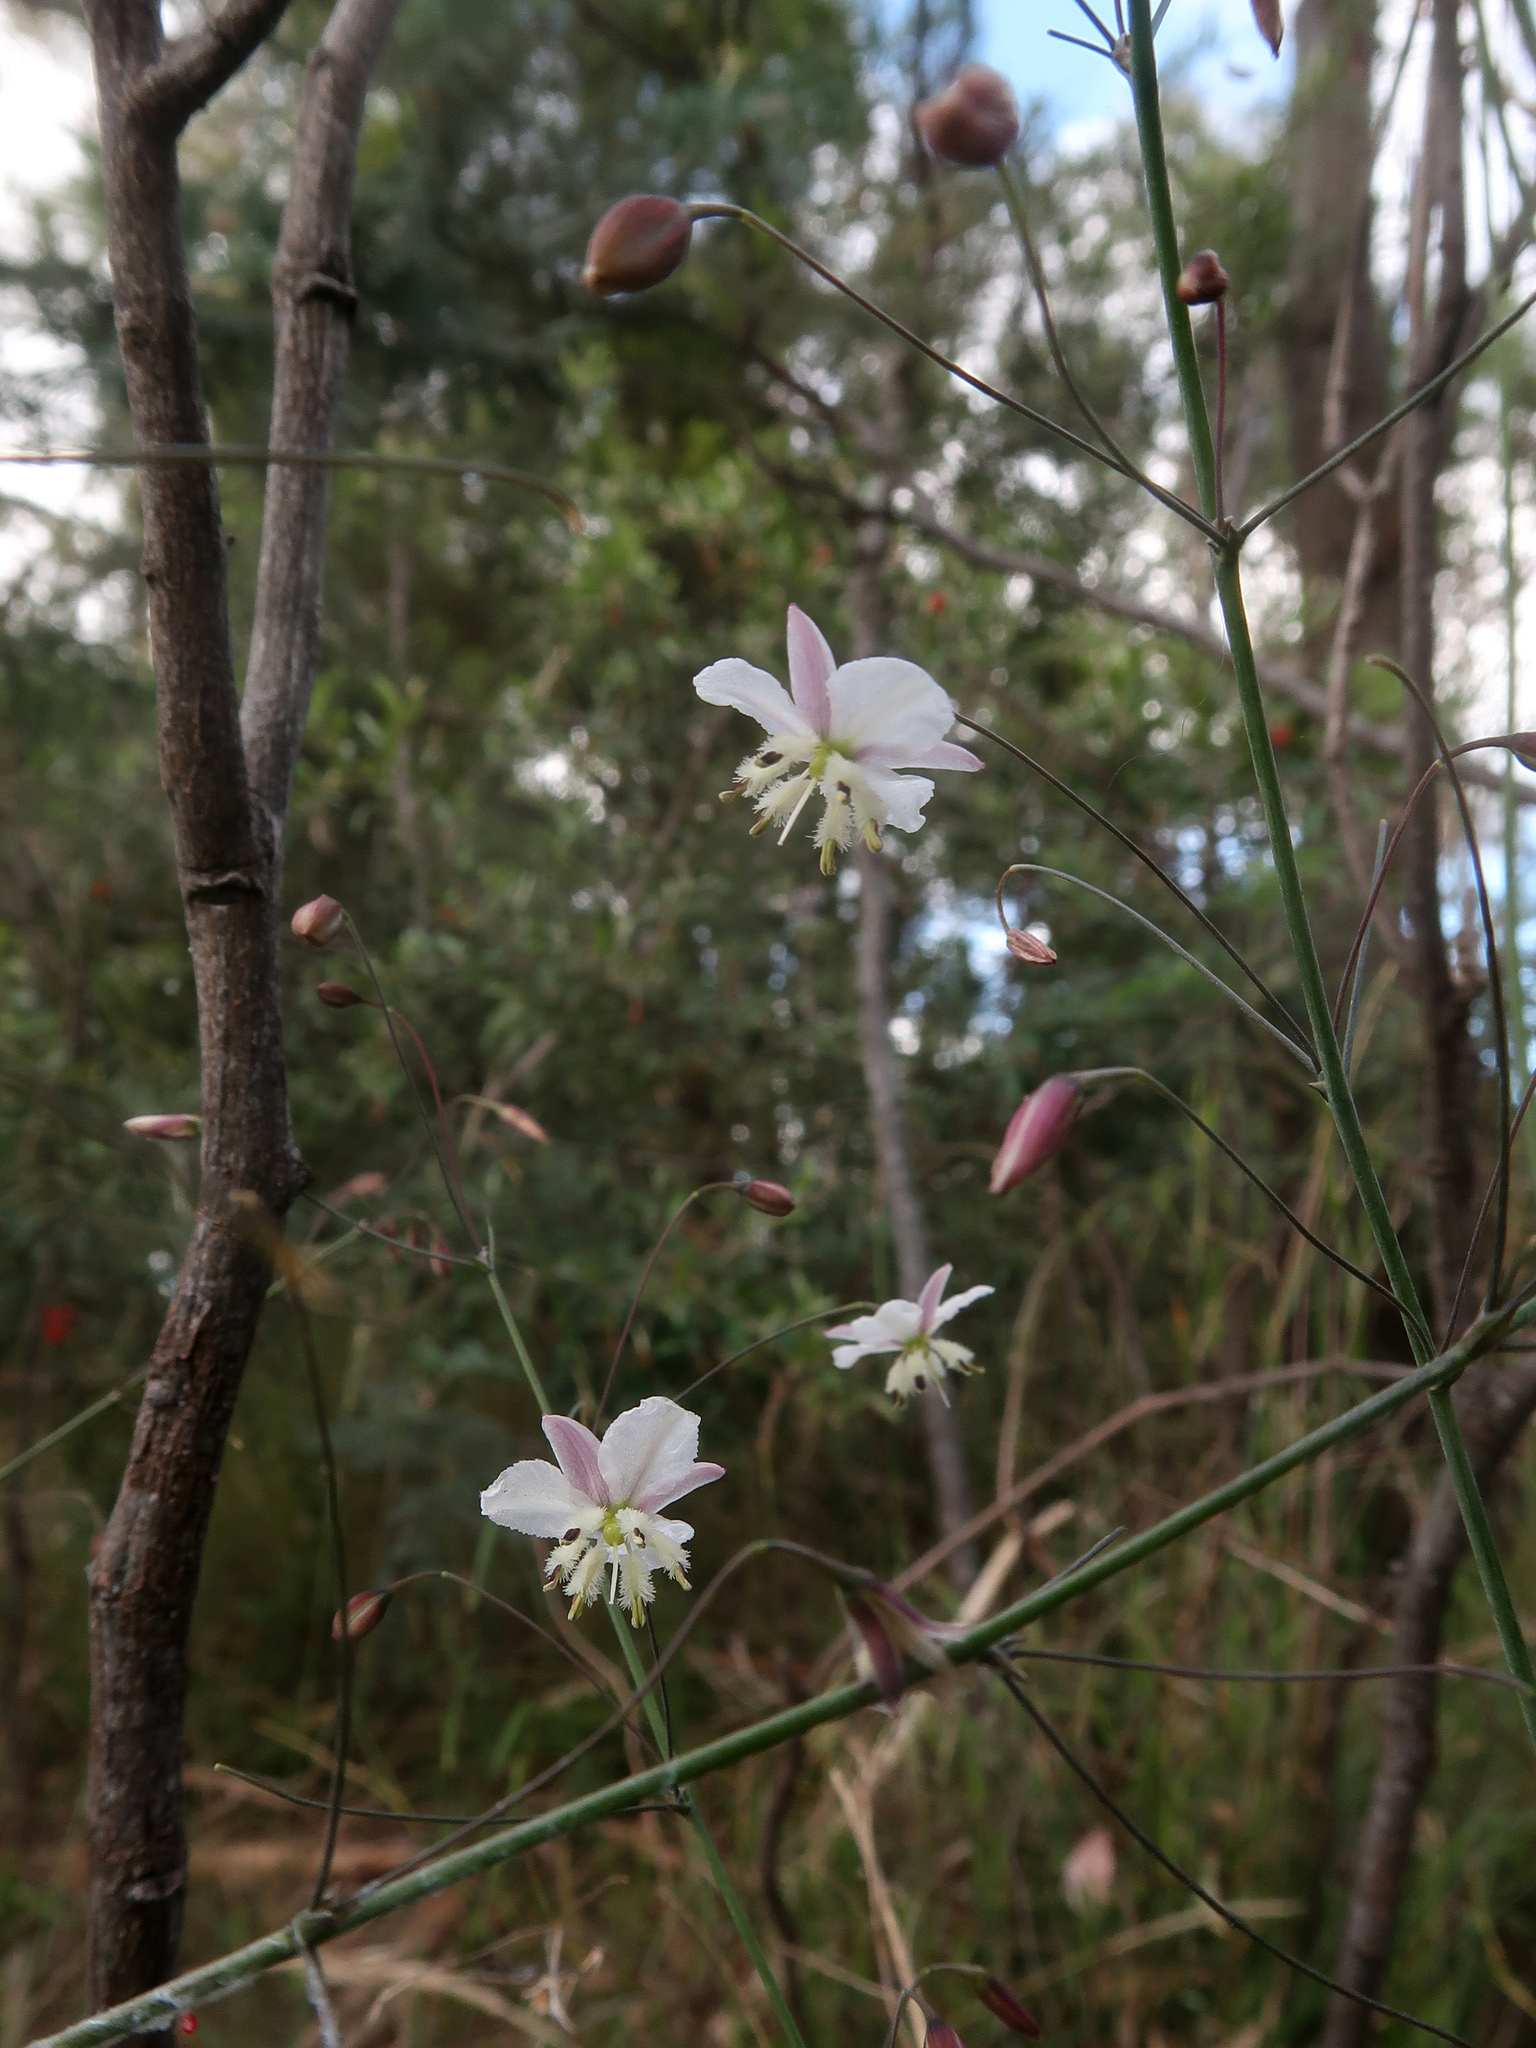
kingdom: Plantae
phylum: Tracheophyta
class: Liliopsida
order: Asparagales
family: Asparagaceae
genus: Arthropodium
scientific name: Arthropodium milleflorum
